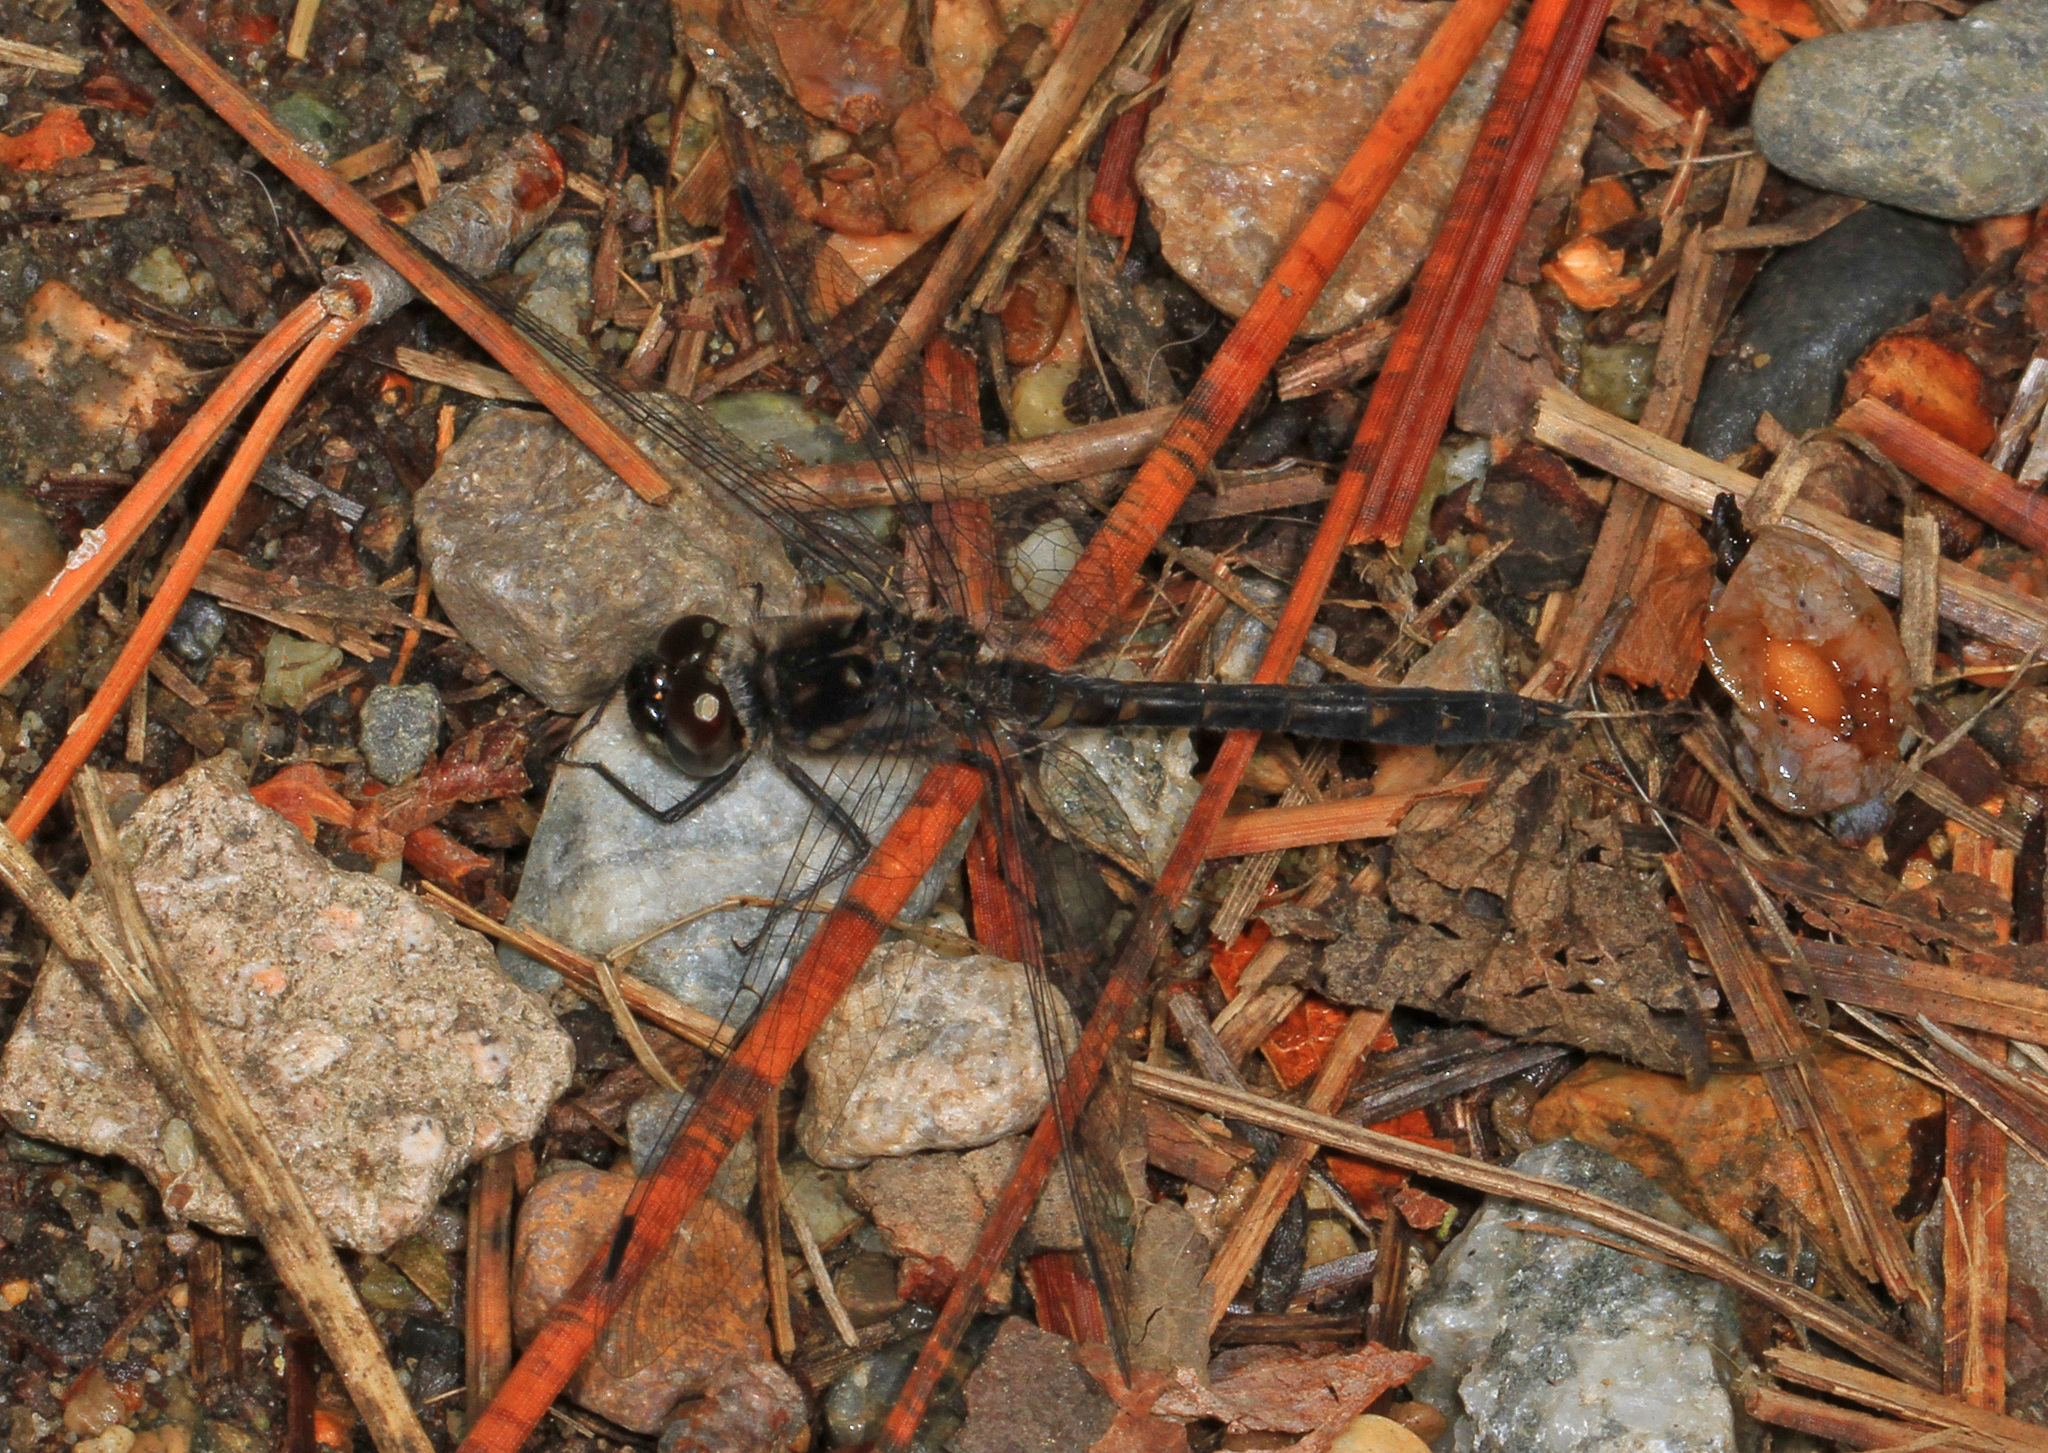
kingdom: Animalia
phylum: Arthropoda
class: Insecta
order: Odonata
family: Libellulidae
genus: Sympetrum
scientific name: Sympetrum danae
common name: Black darter
